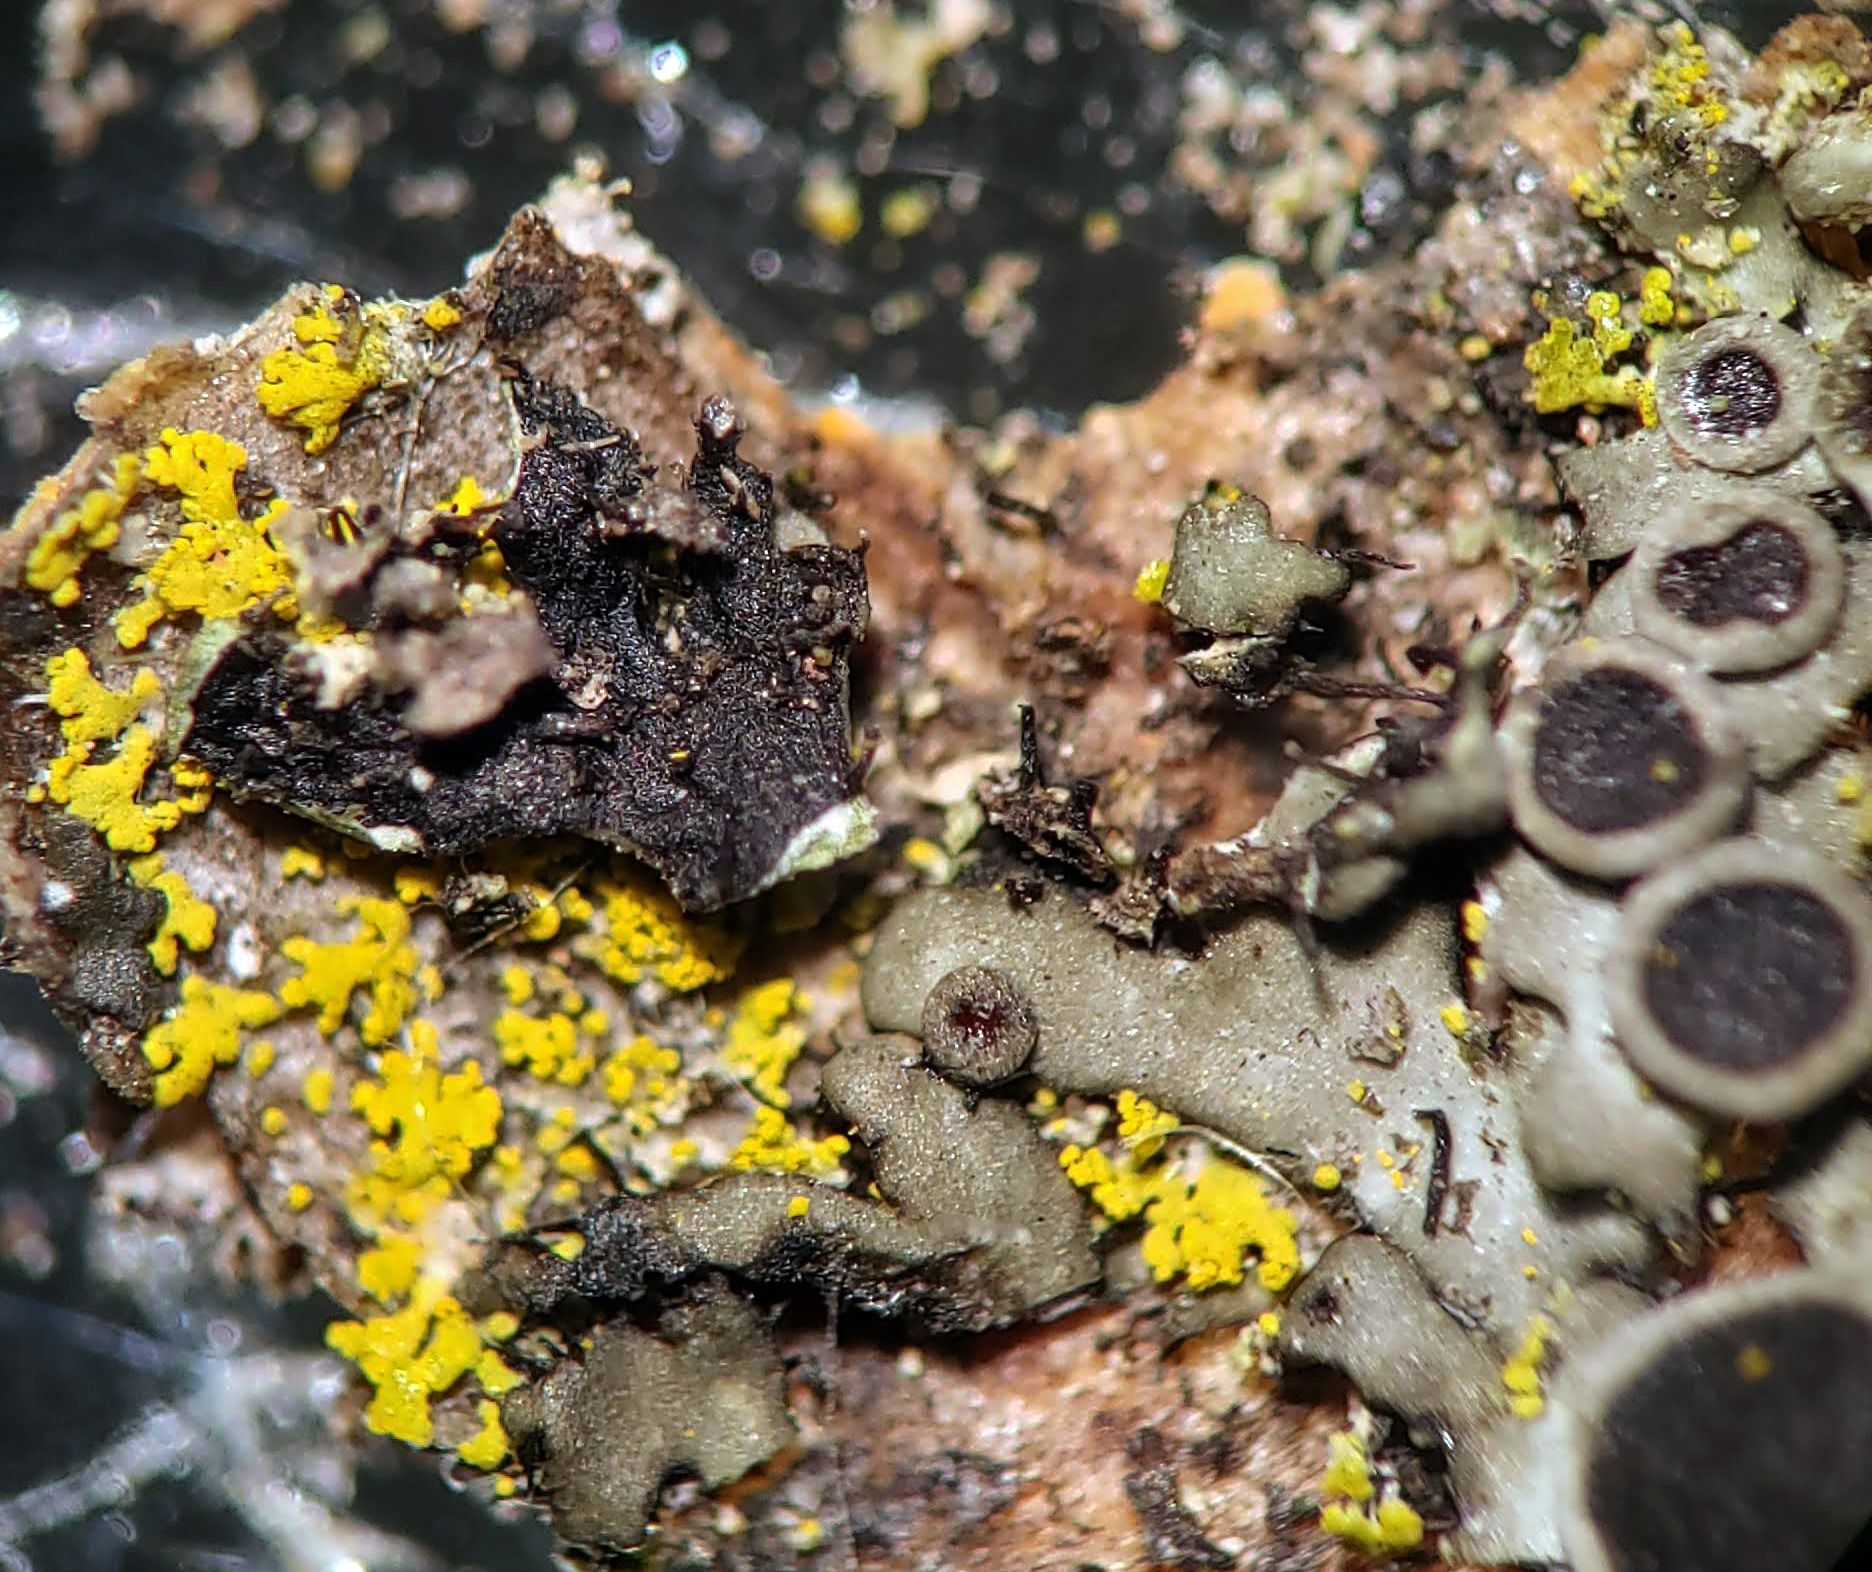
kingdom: Fungi
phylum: Ascomycota
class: Lecanoromycetes
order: Caliciales
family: Physciaceae
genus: Phaeophyscia
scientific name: Phaeophyscia ciliata
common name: Smooth shadow lichen
